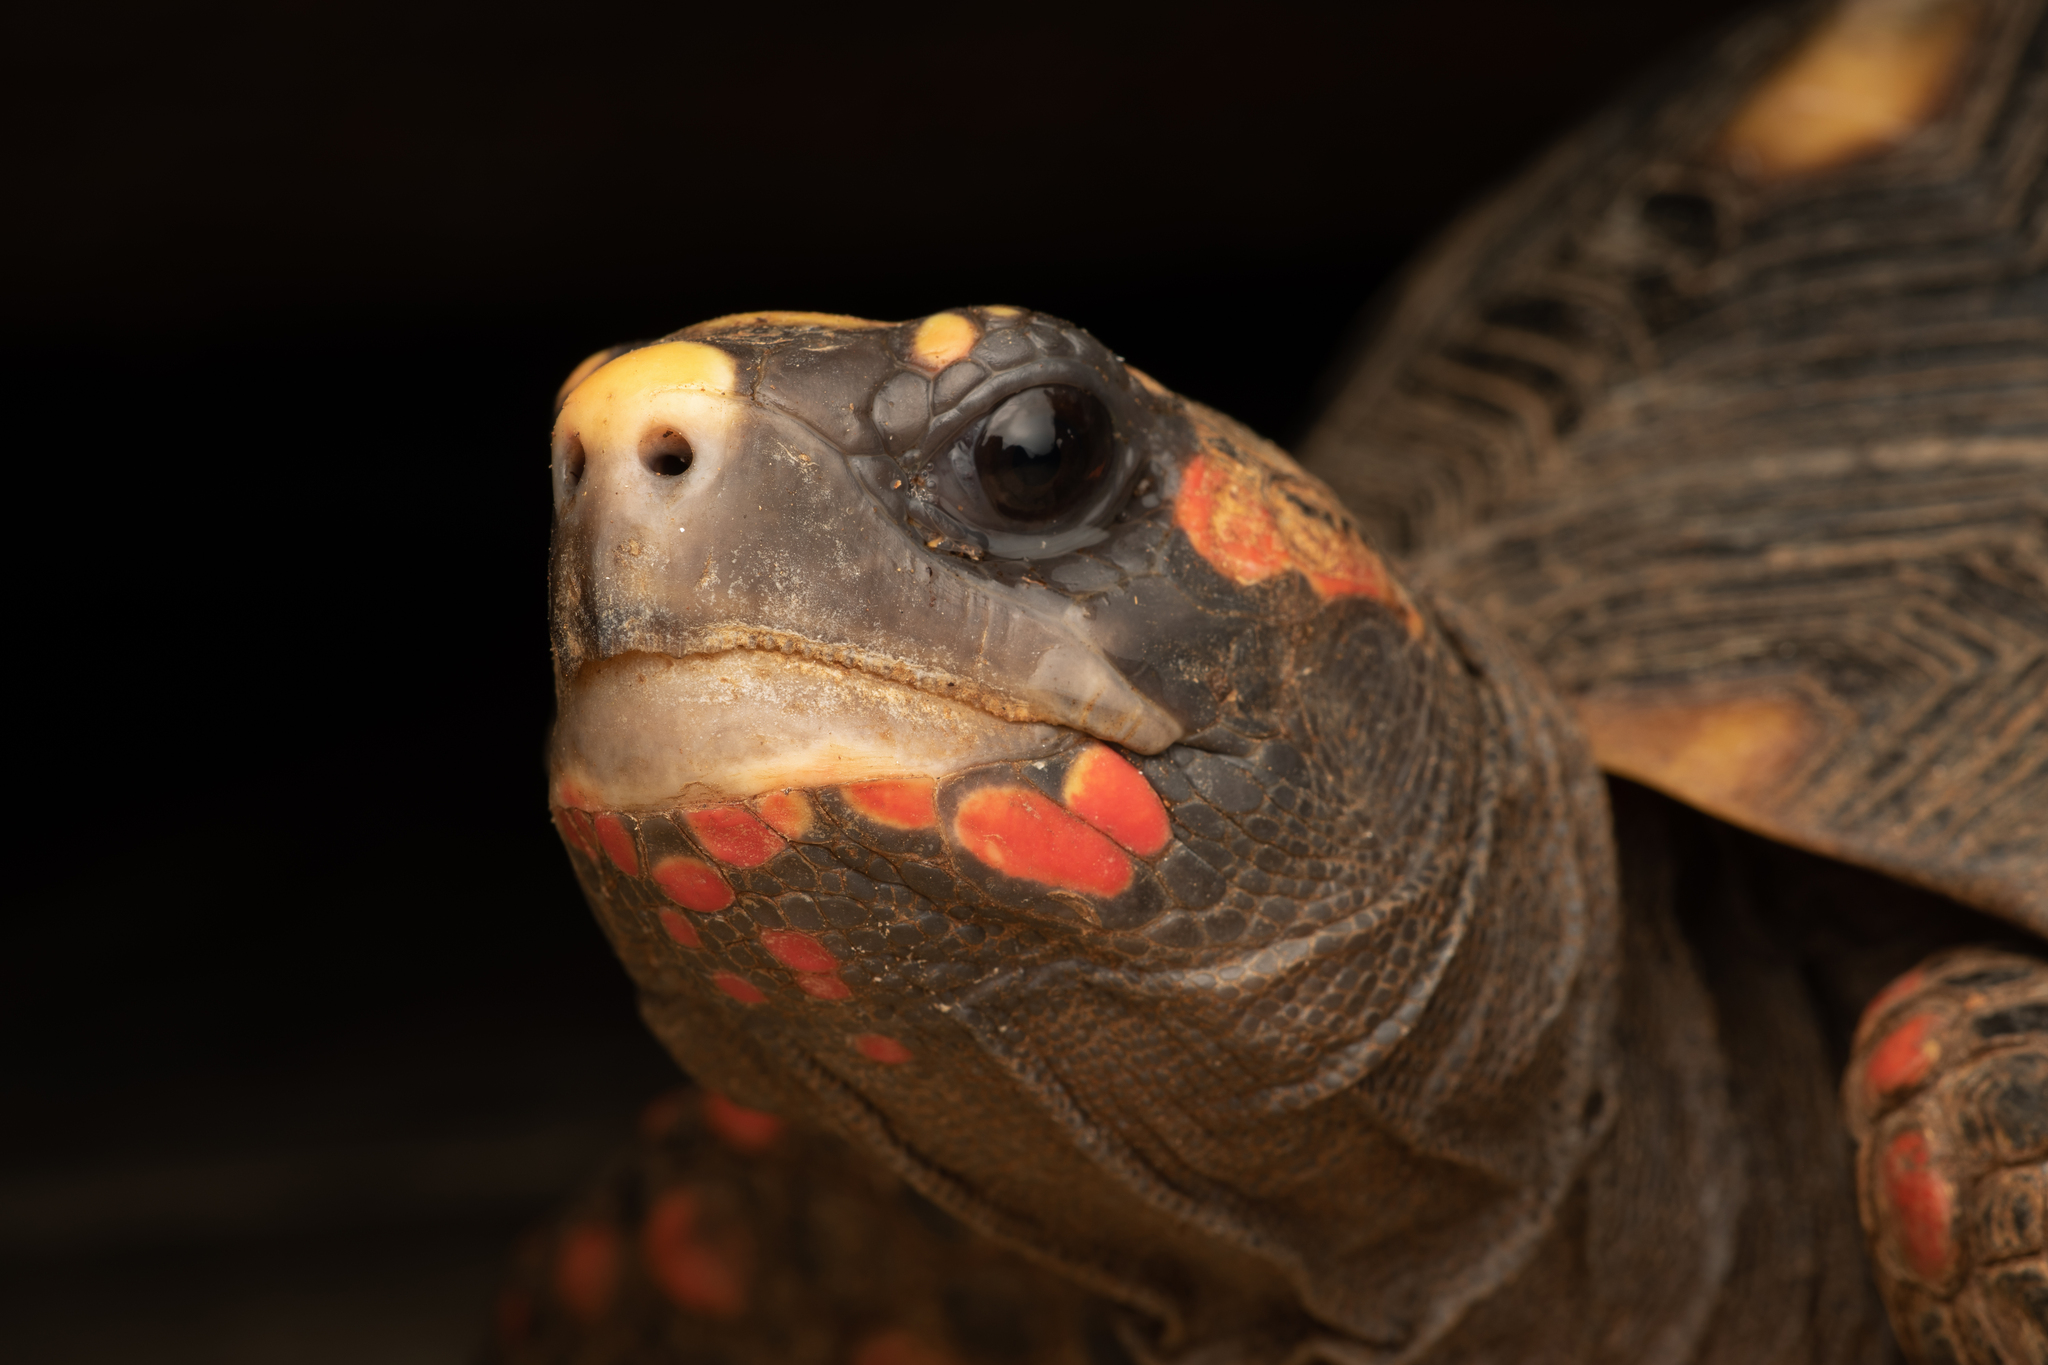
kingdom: Animalia
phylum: Chordata
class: Testudines
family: Testudinidae
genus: Chelonoidis
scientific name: Chelonoidis carbonarius
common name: Red-footed tortoise
